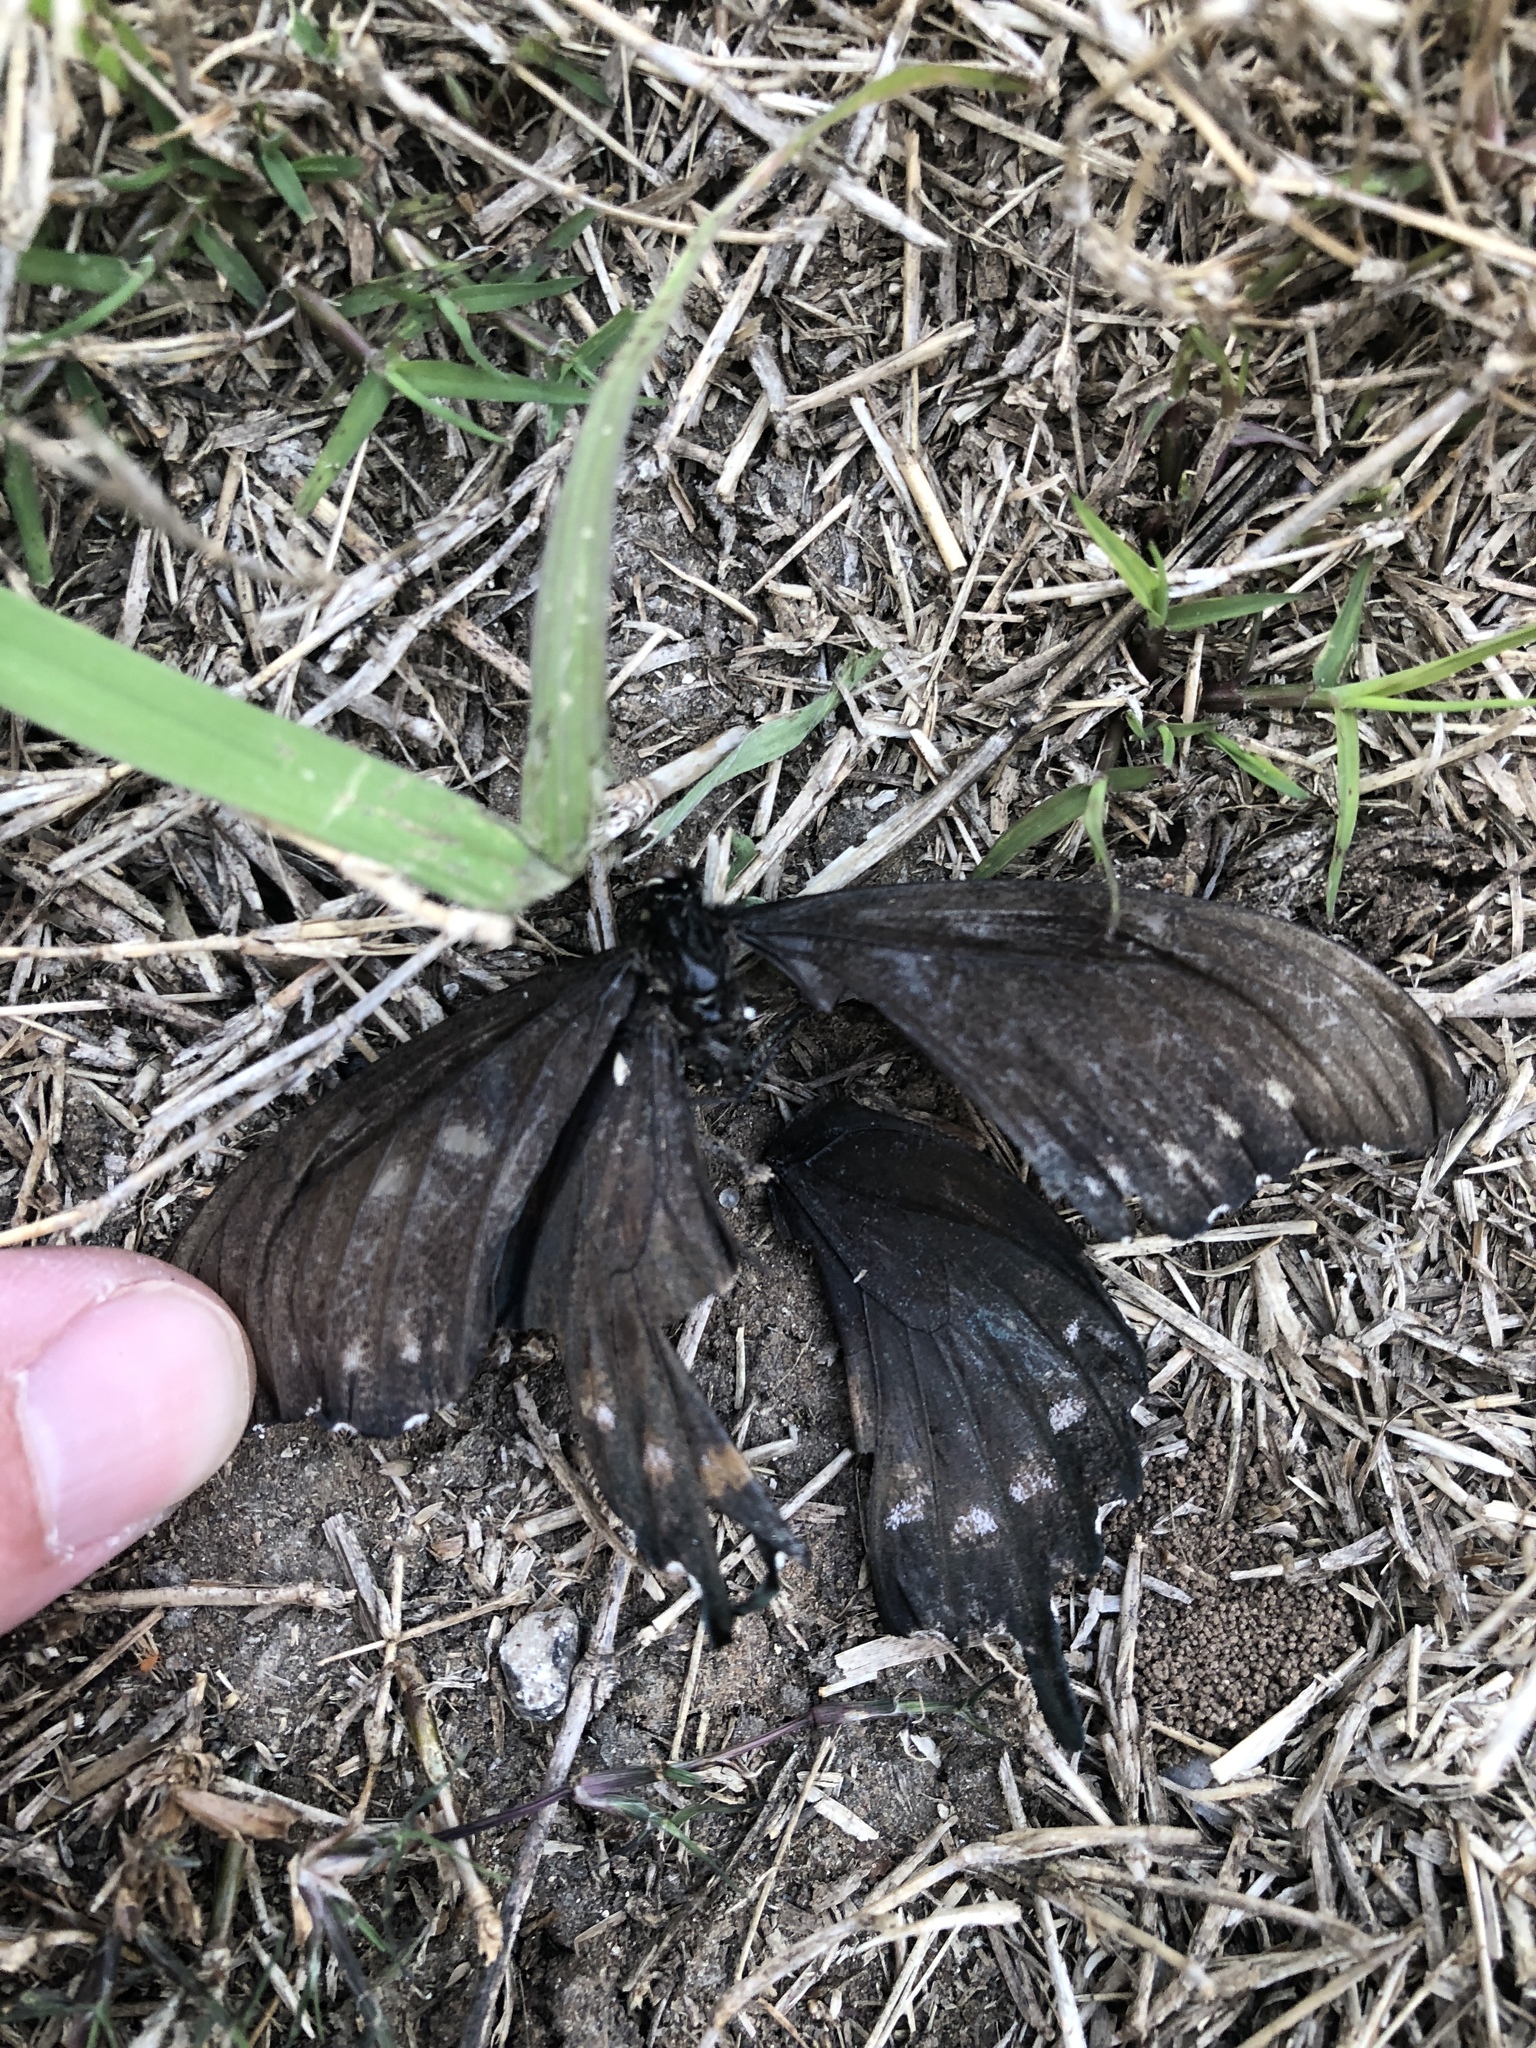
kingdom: Animalia
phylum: Arthropoda
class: Insecta
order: Lepidoptera
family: Papilionidae
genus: Battus
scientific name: Battus philenor
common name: Pipevine swallowtail
